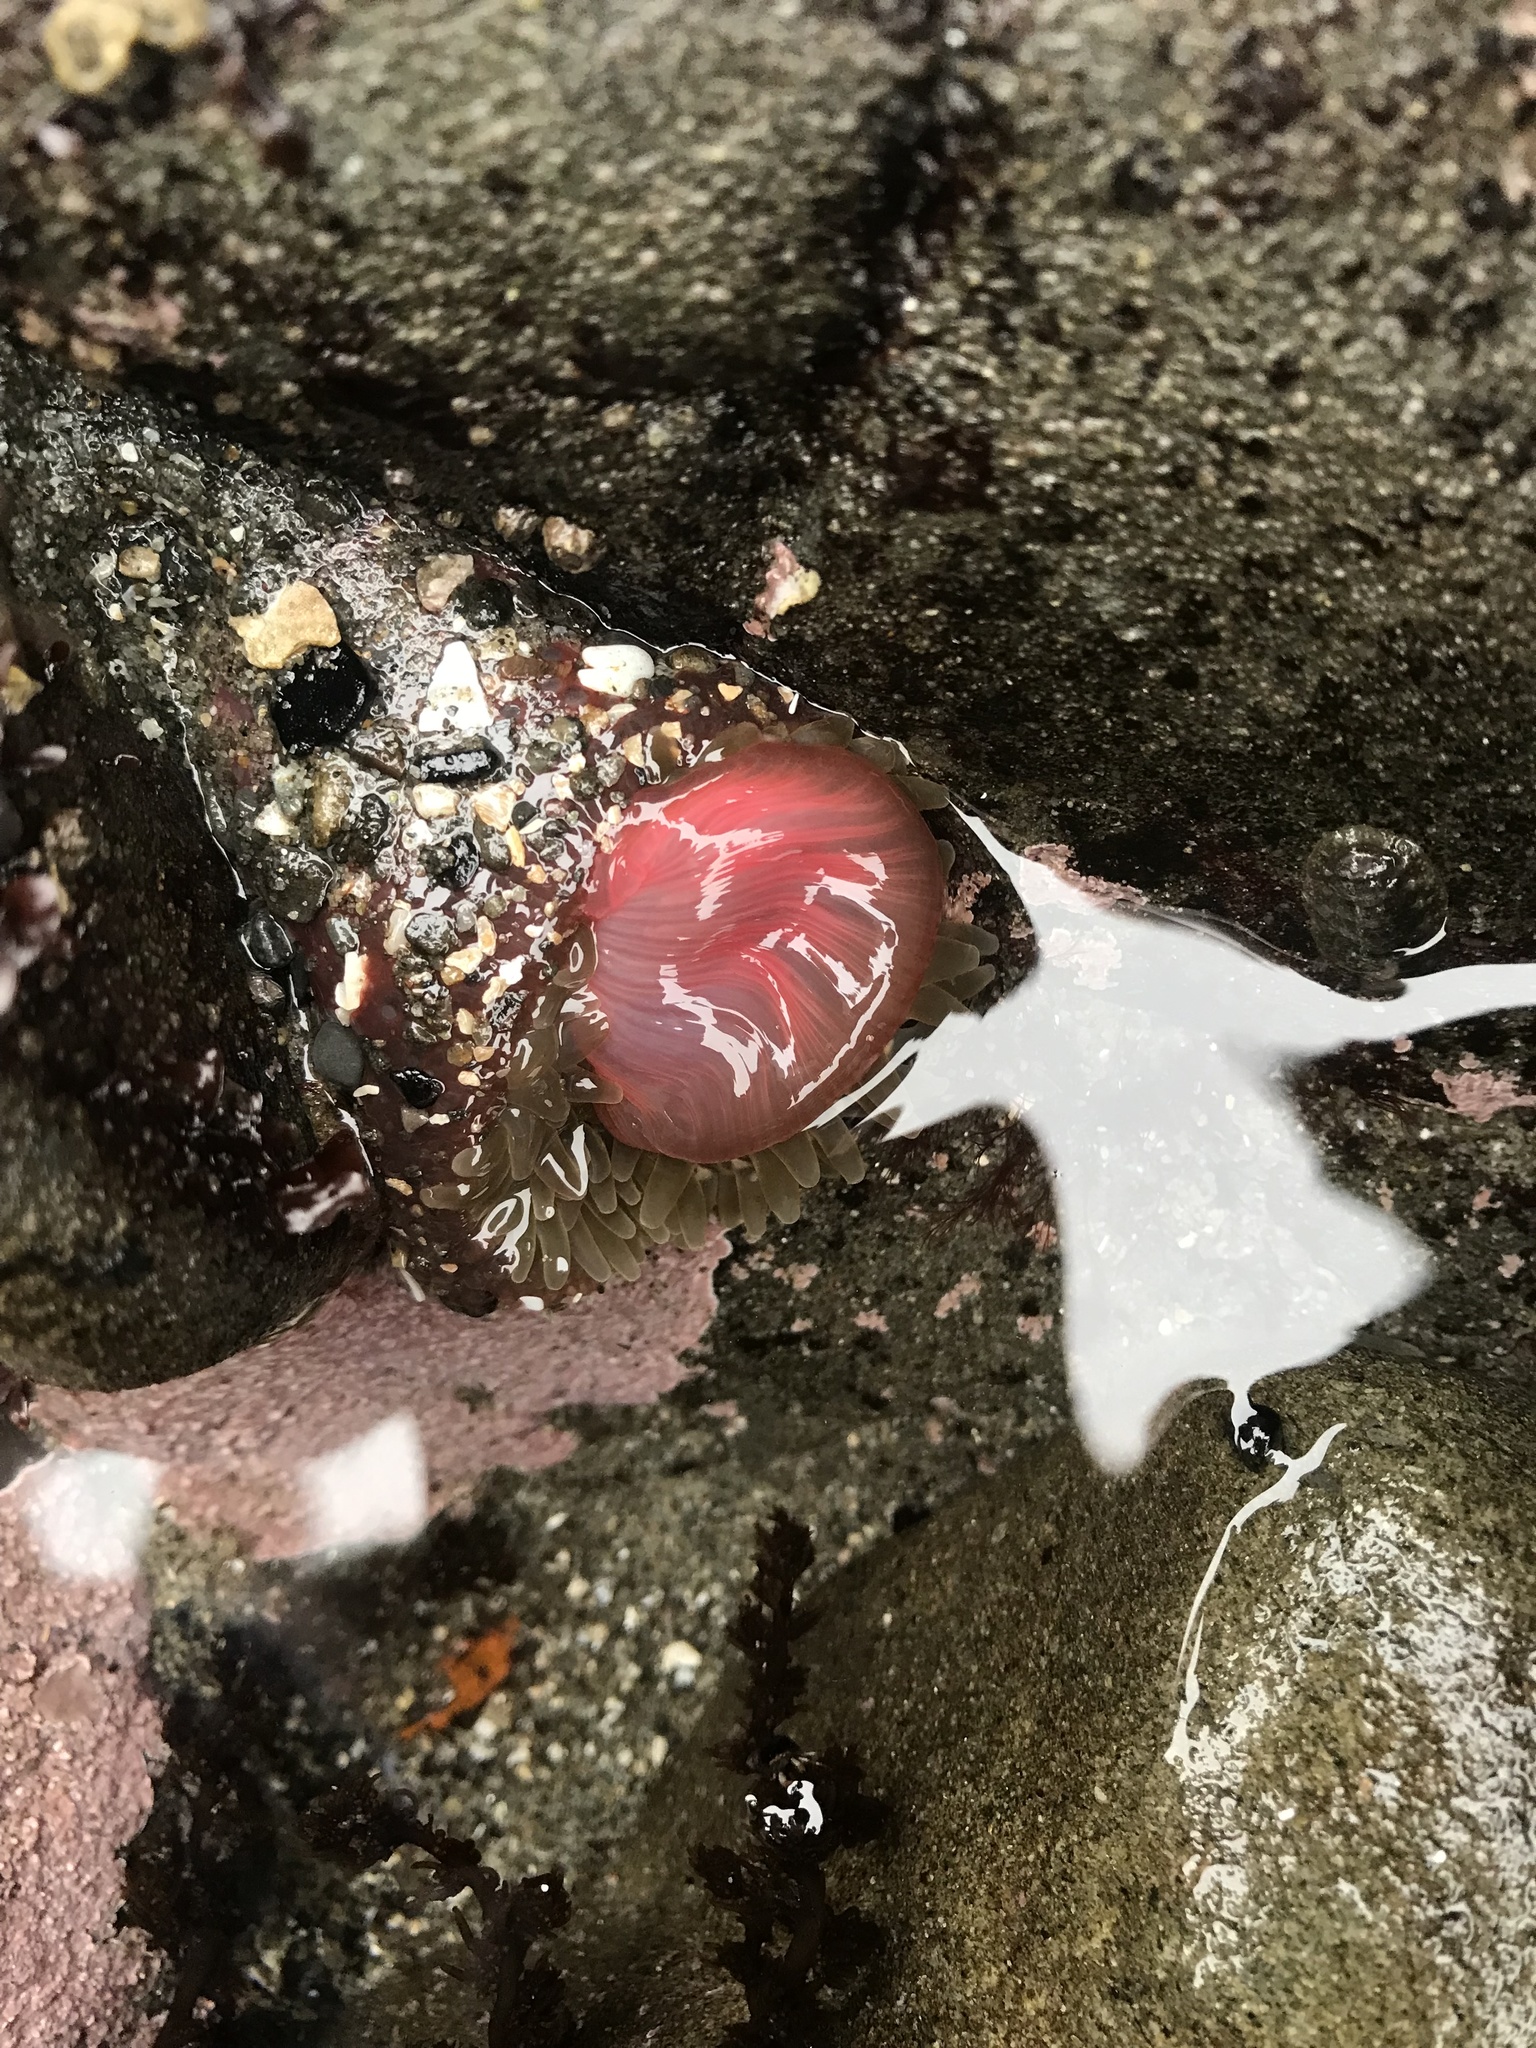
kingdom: Animalia
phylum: Cnidaria
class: Anthozoa
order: Actiniaria
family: Actiniidae
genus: Urticina
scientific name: Urticina clandestina
